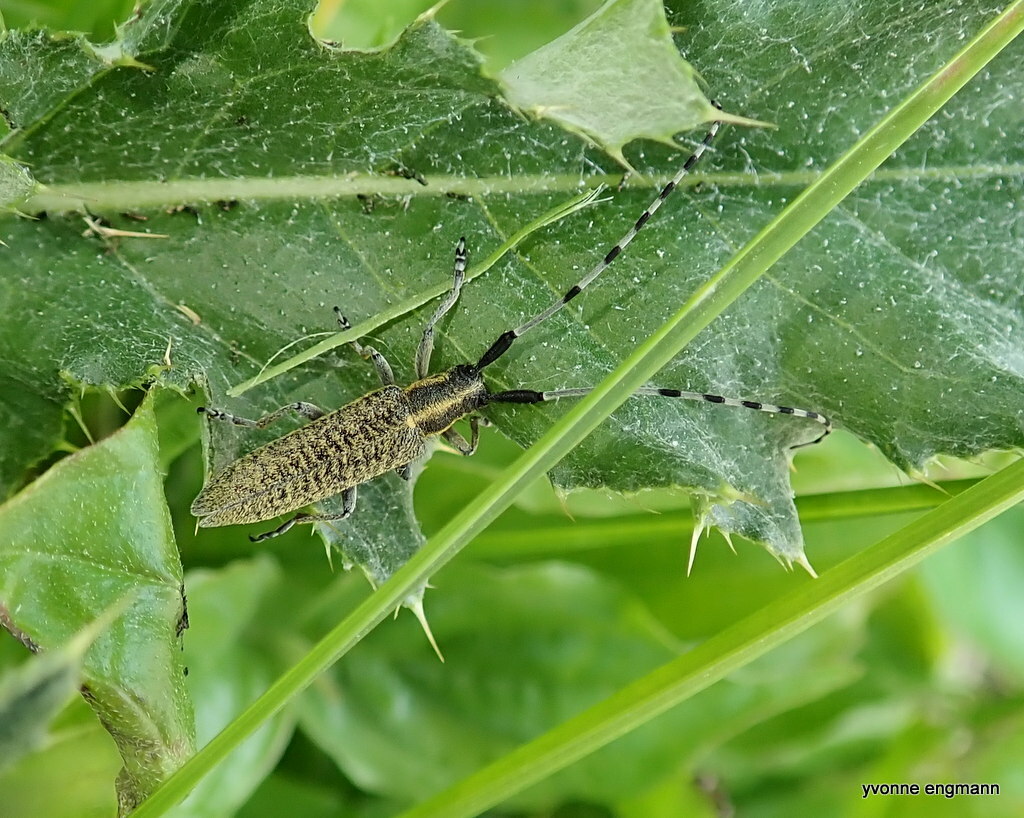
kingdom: Animalia
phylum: Arthropoda
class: Insecta
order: Coleoptera
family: Cerambycidae
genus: Agapanthia
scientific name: Agapanthia villosoviridescens
